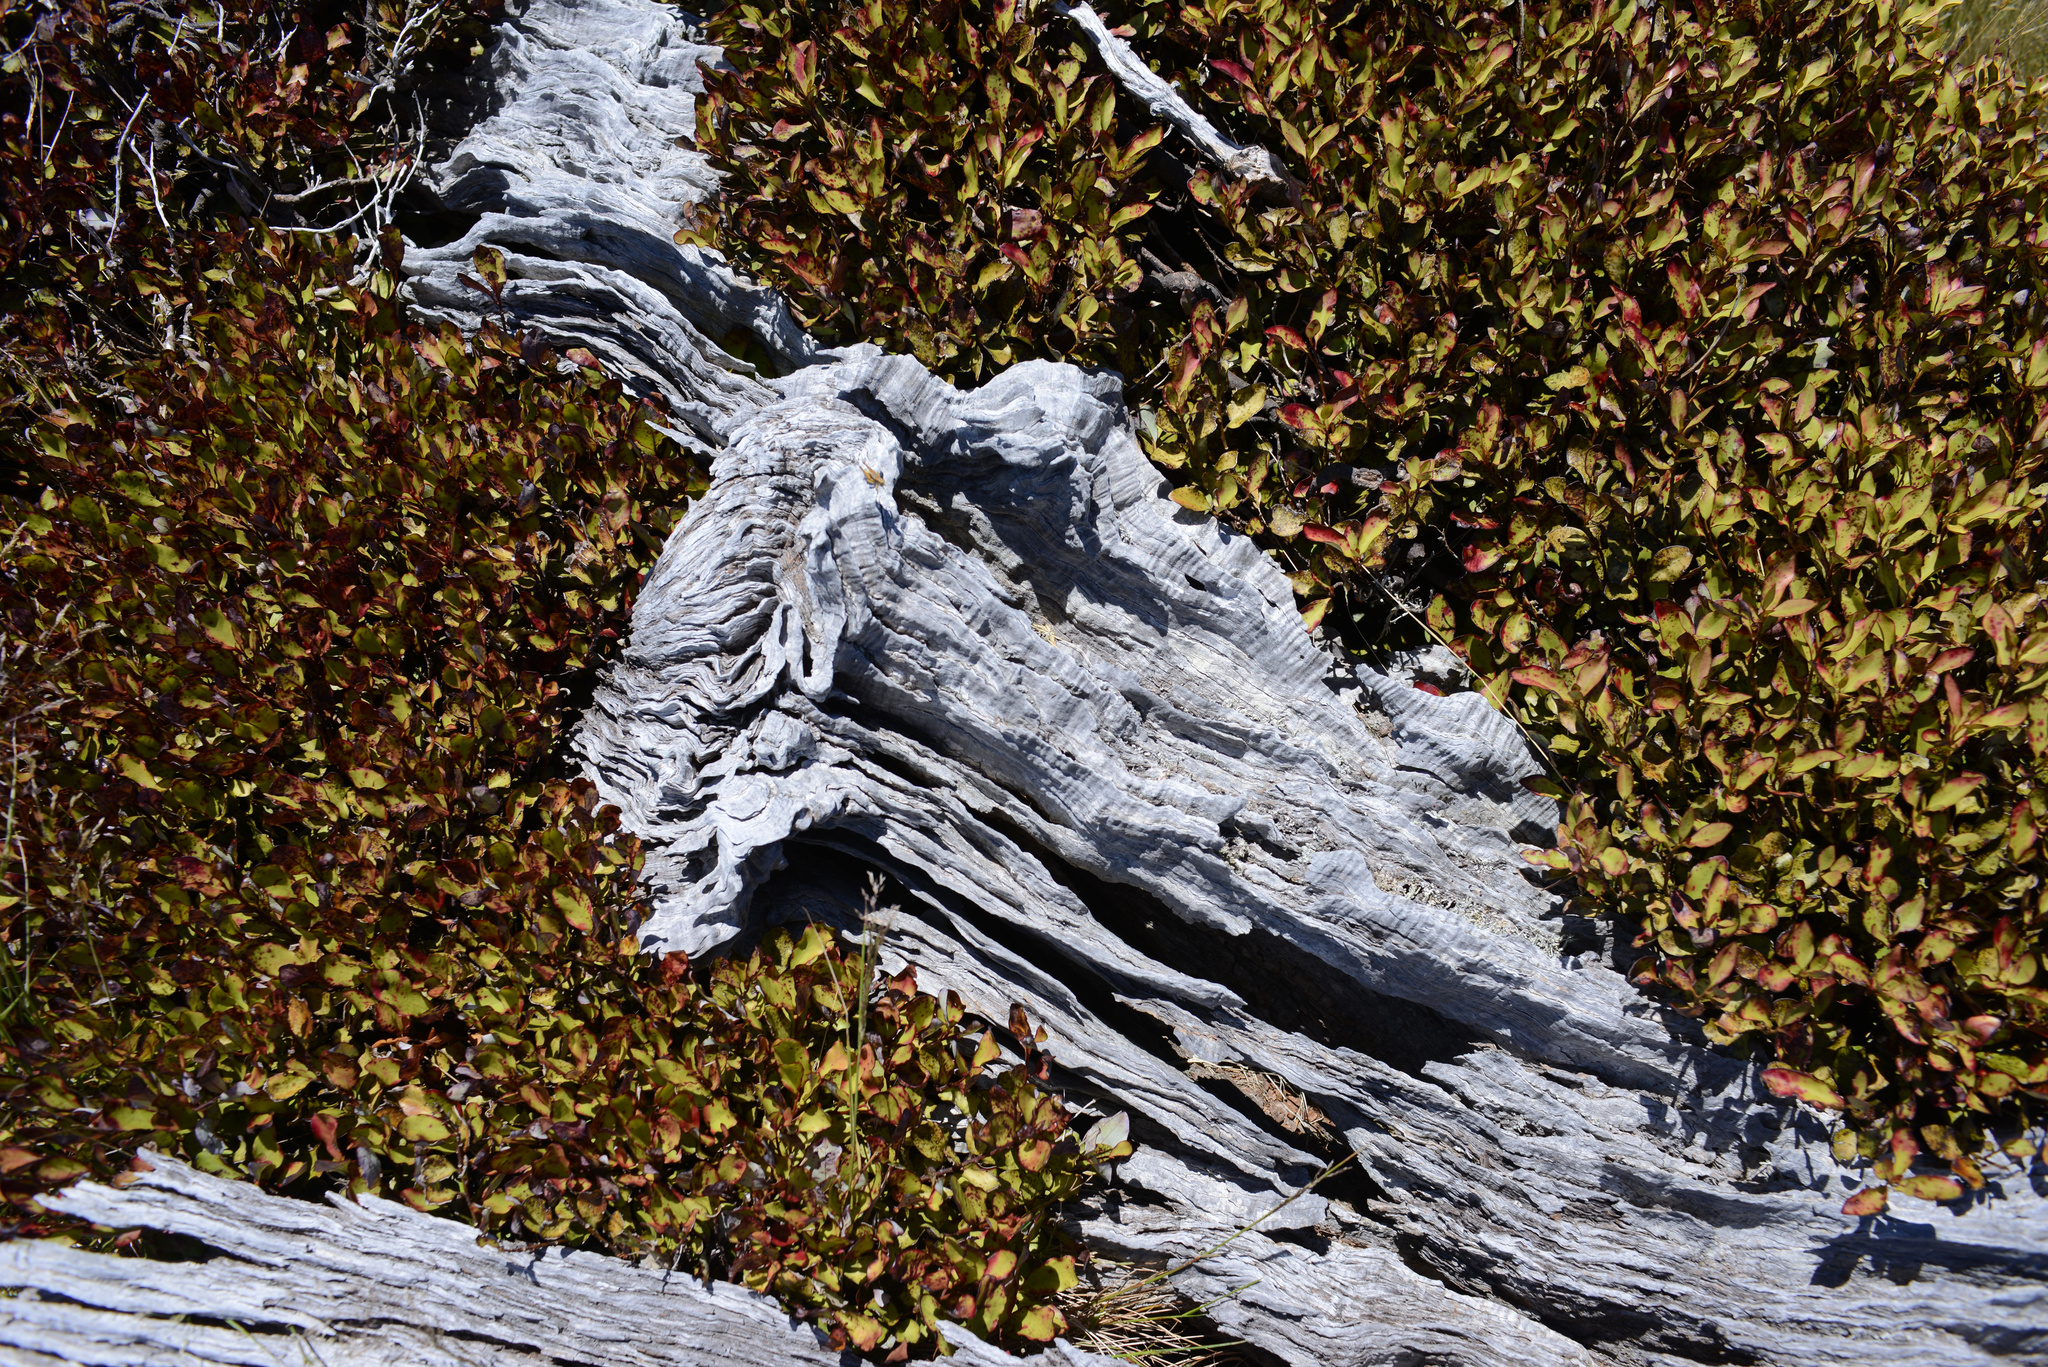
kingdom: Plantae
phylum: Tracheophyta
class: Magnoliopsida
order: Canellales
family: Winteraceae
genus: Pseudowintera
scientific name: Pseudowintera colorata
